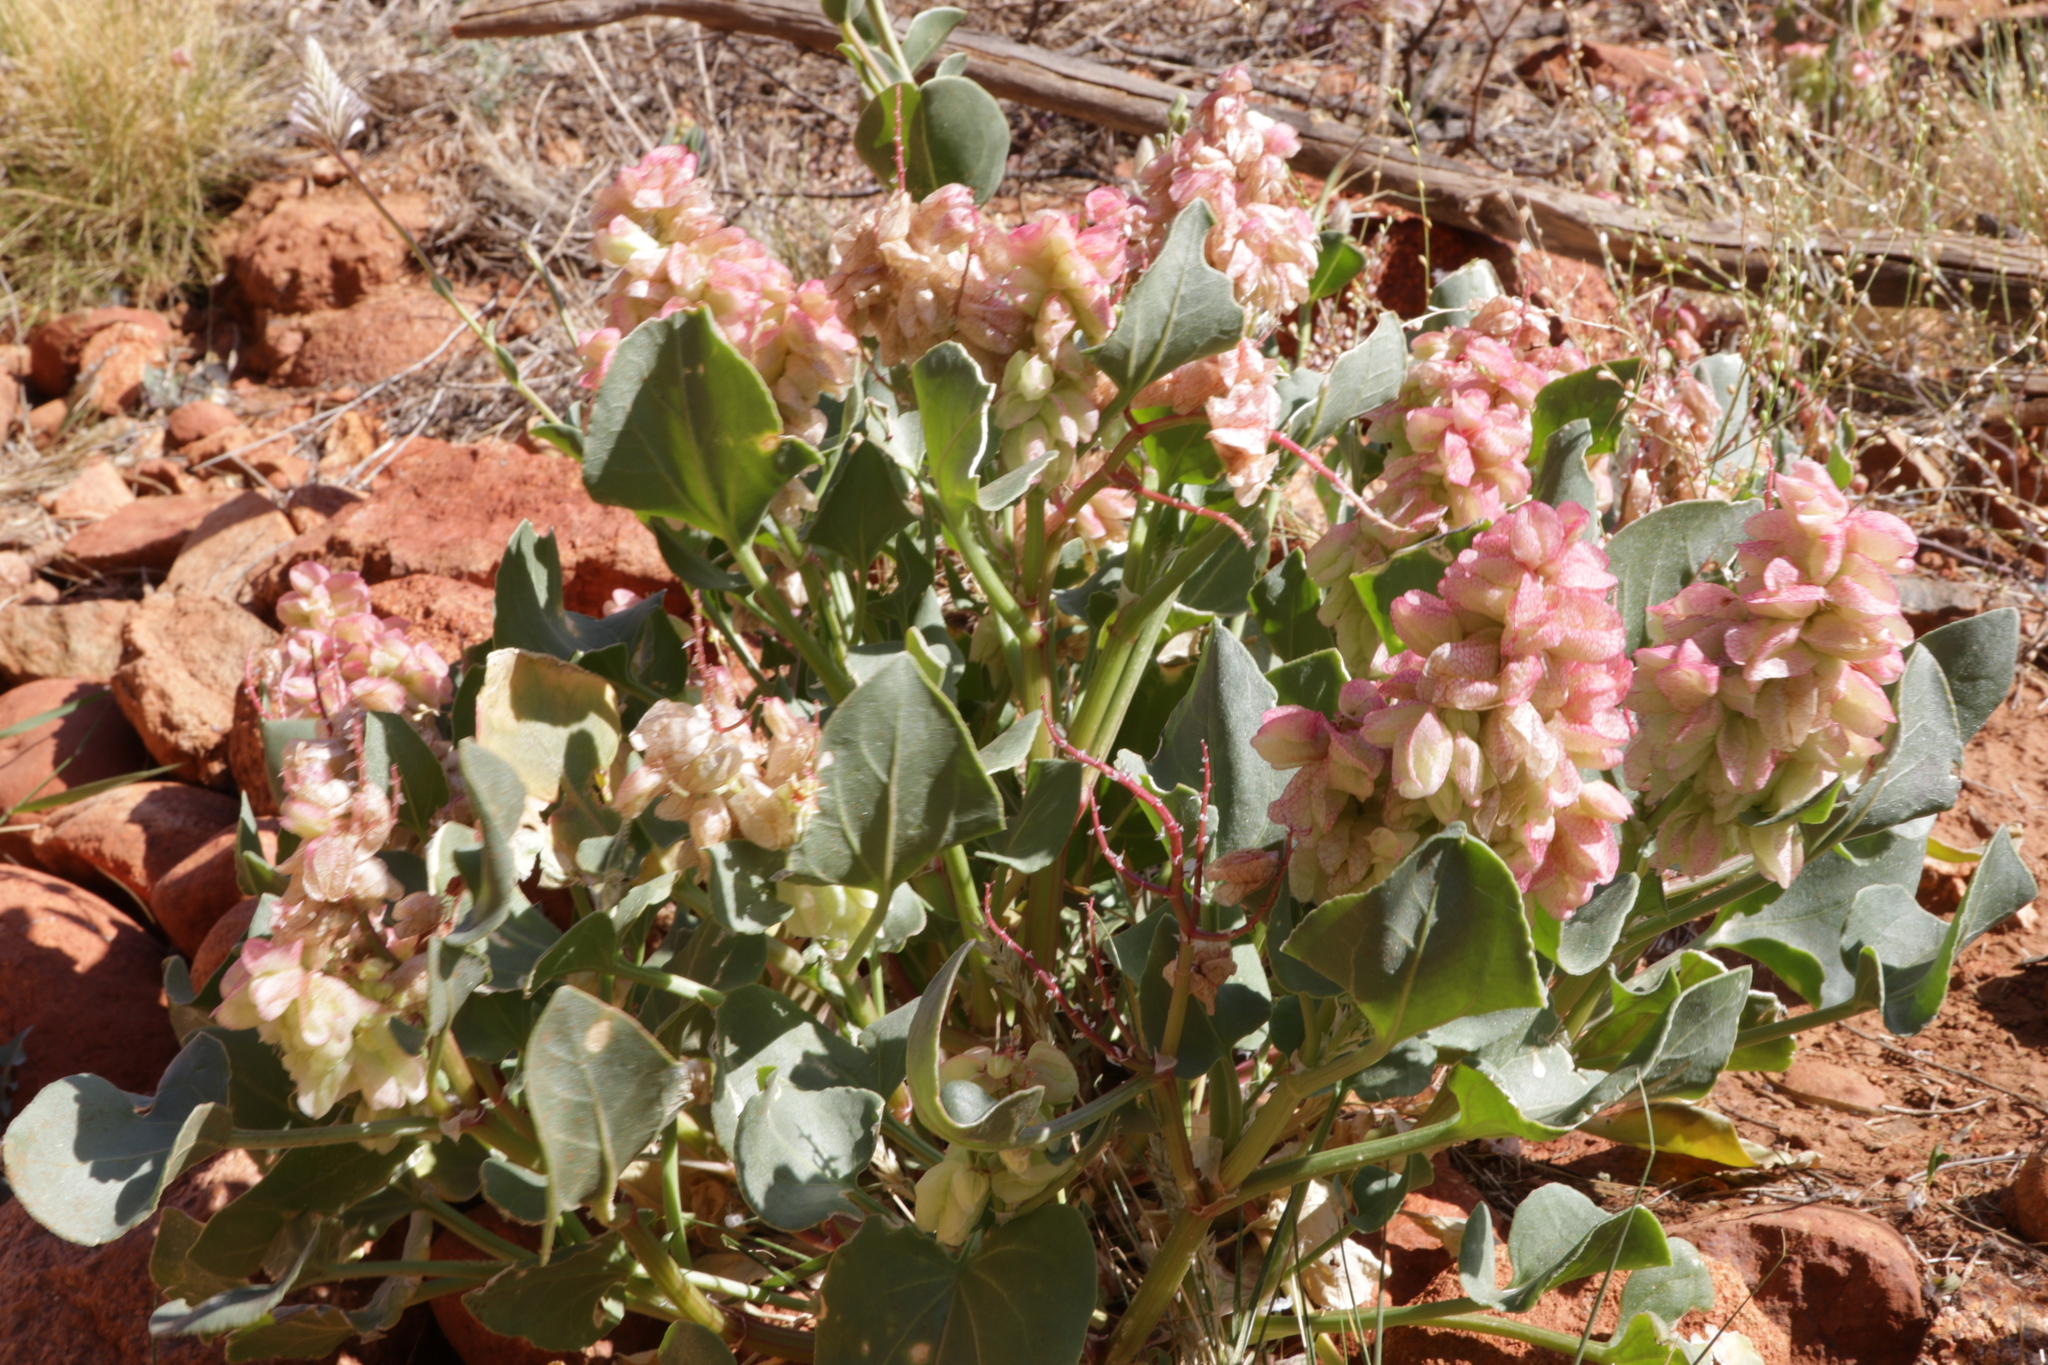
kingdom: Plantae
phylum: Tracheophyta
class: Magnoliopsida
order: Caryophyllales
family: Polygonaceae
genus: Rumex
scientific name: Rumex vesicarius
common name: Bladder dock
